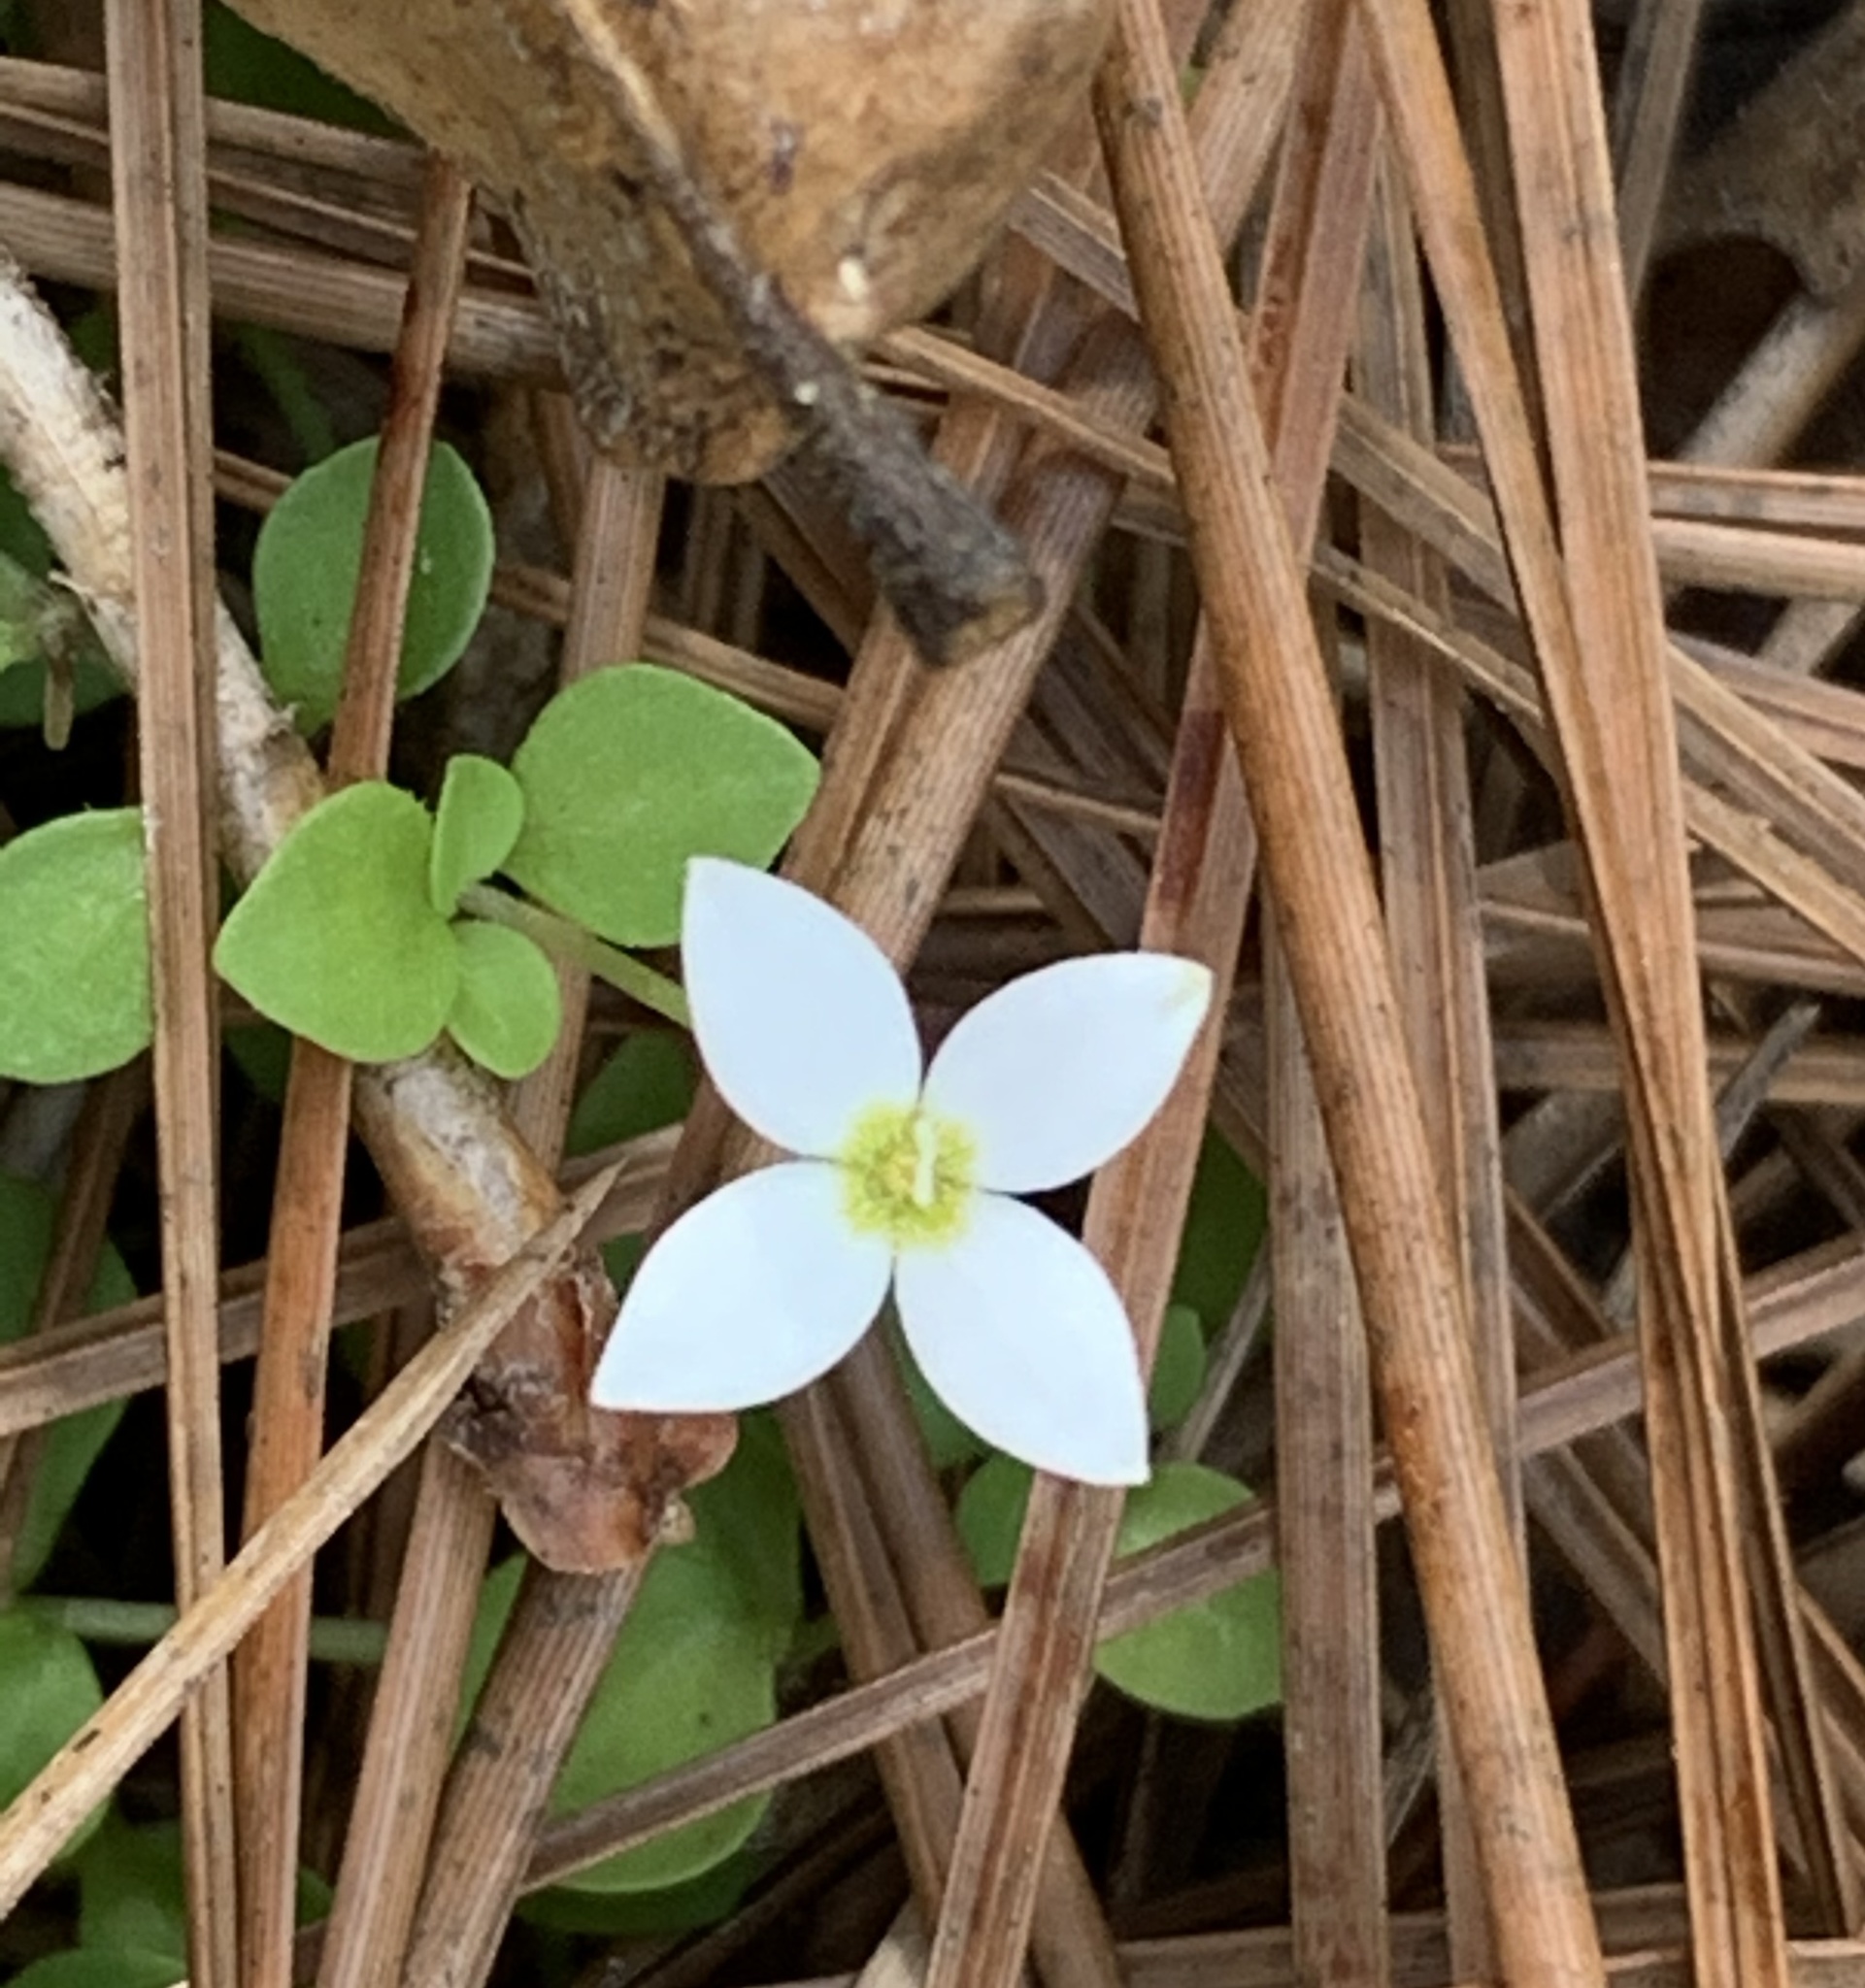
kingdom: Plantae
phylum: Tracheophyta
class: Magnoliopsida
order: Gentianales
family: Rubiaceae
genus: Houstonia
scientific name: Houstonia procumbens
